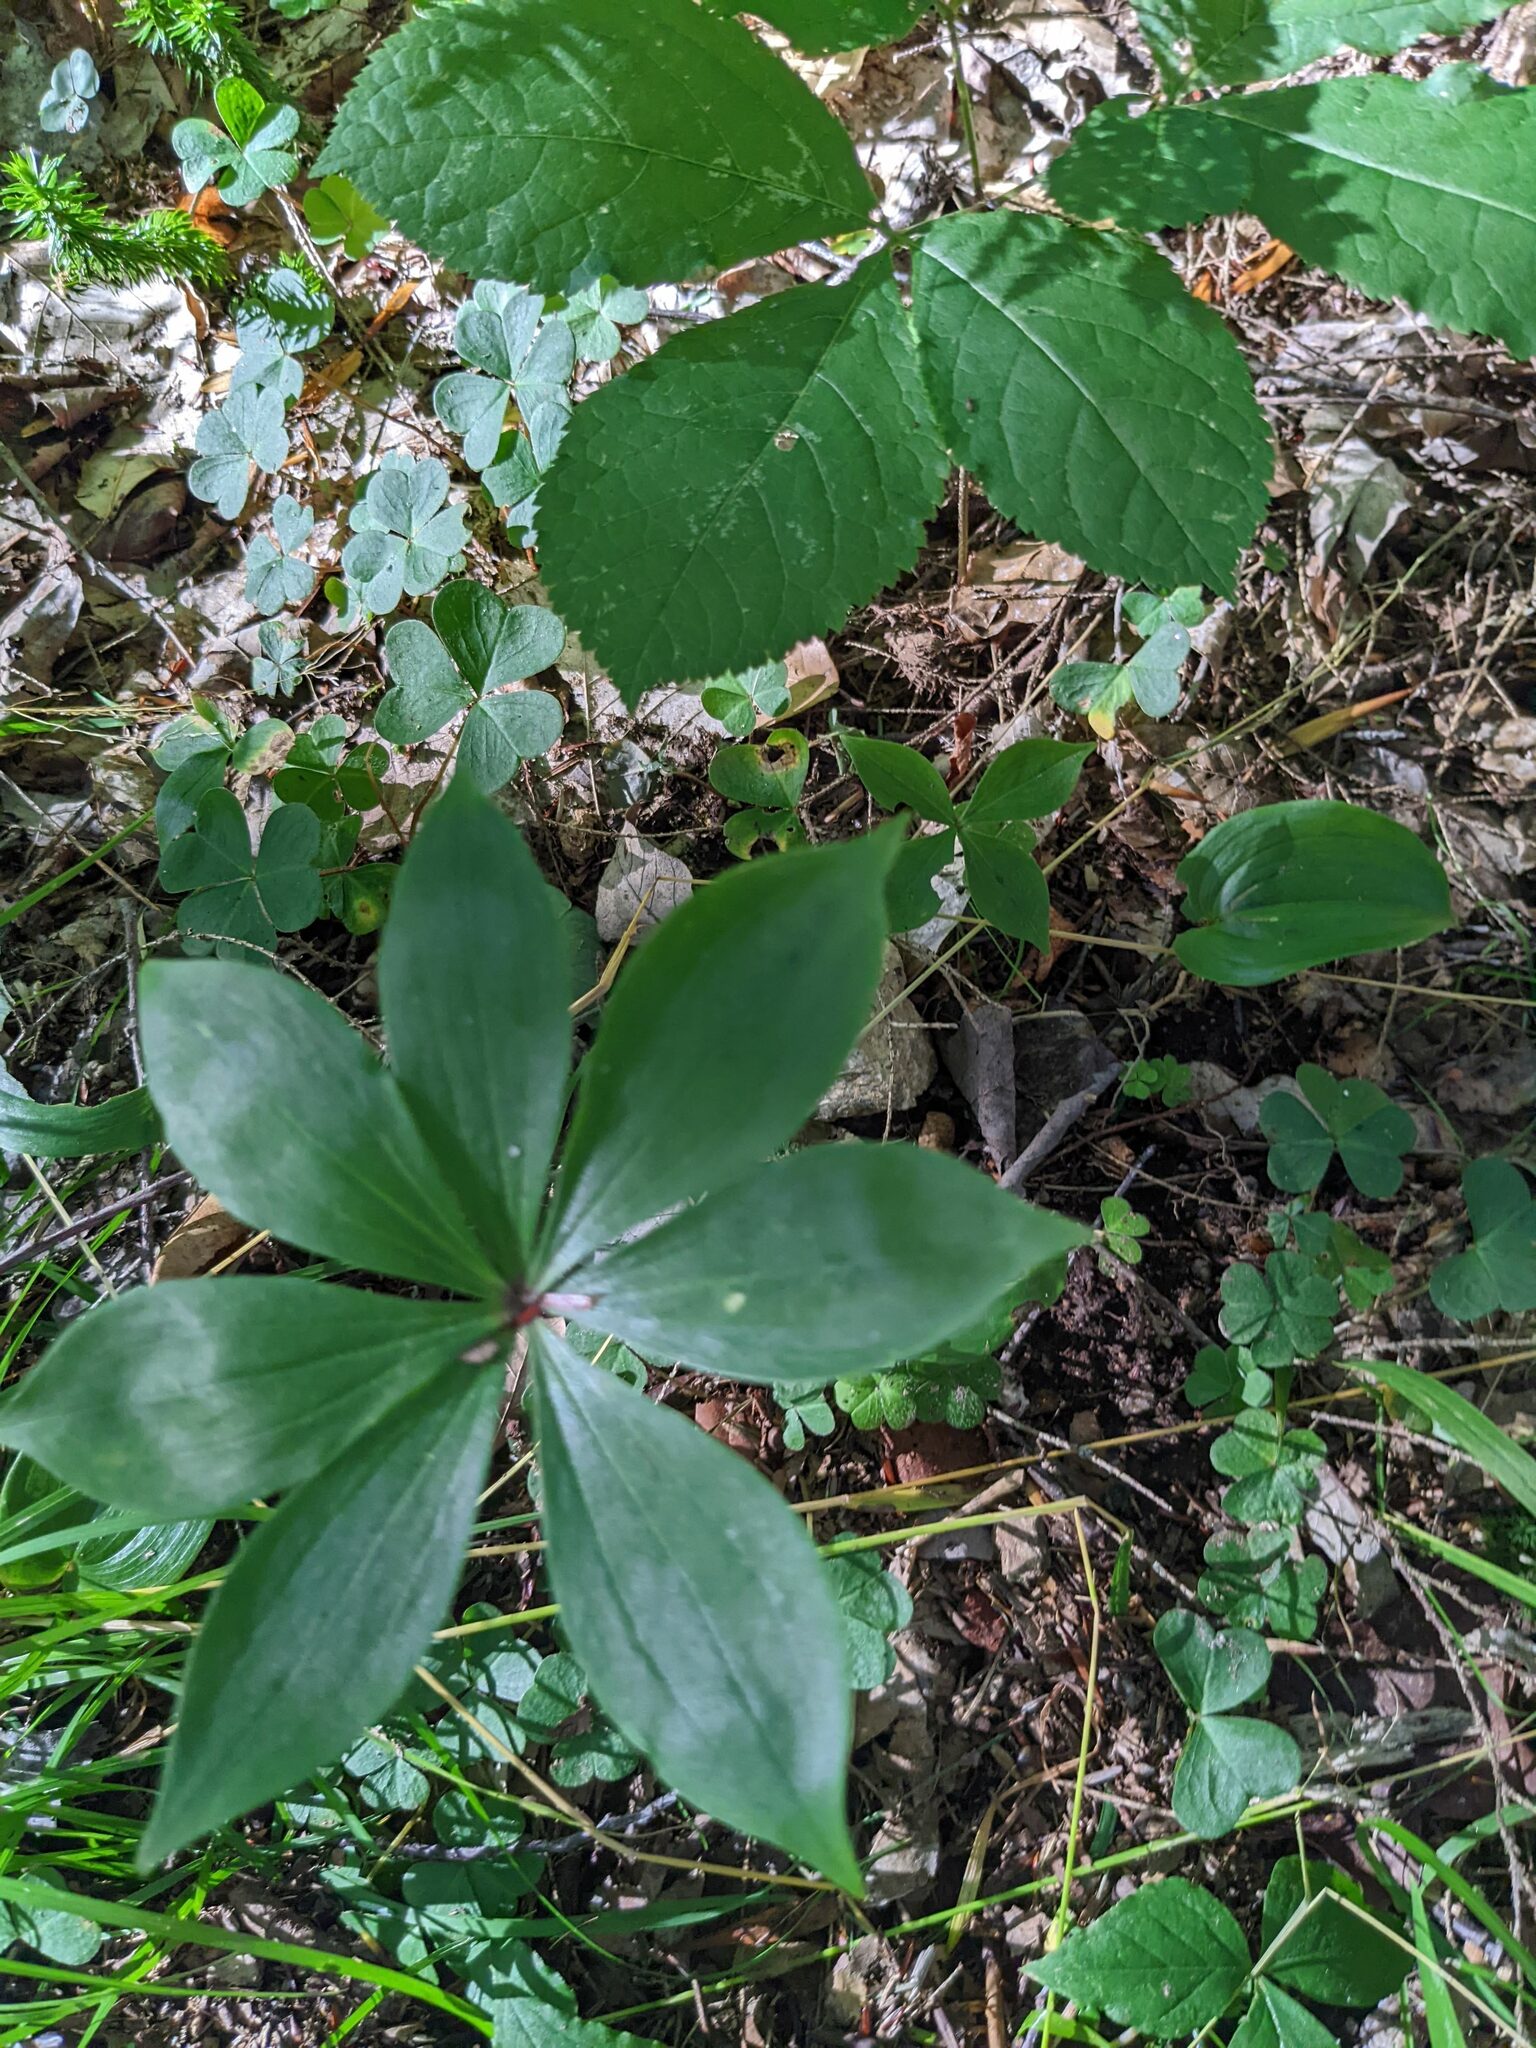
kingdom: Plantae
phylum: Tracheophyta
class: Liliopsida
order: Liliales
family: Liliaceae
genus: Medeola
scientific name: Medeola virginiana
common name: Indian cucumber-root
